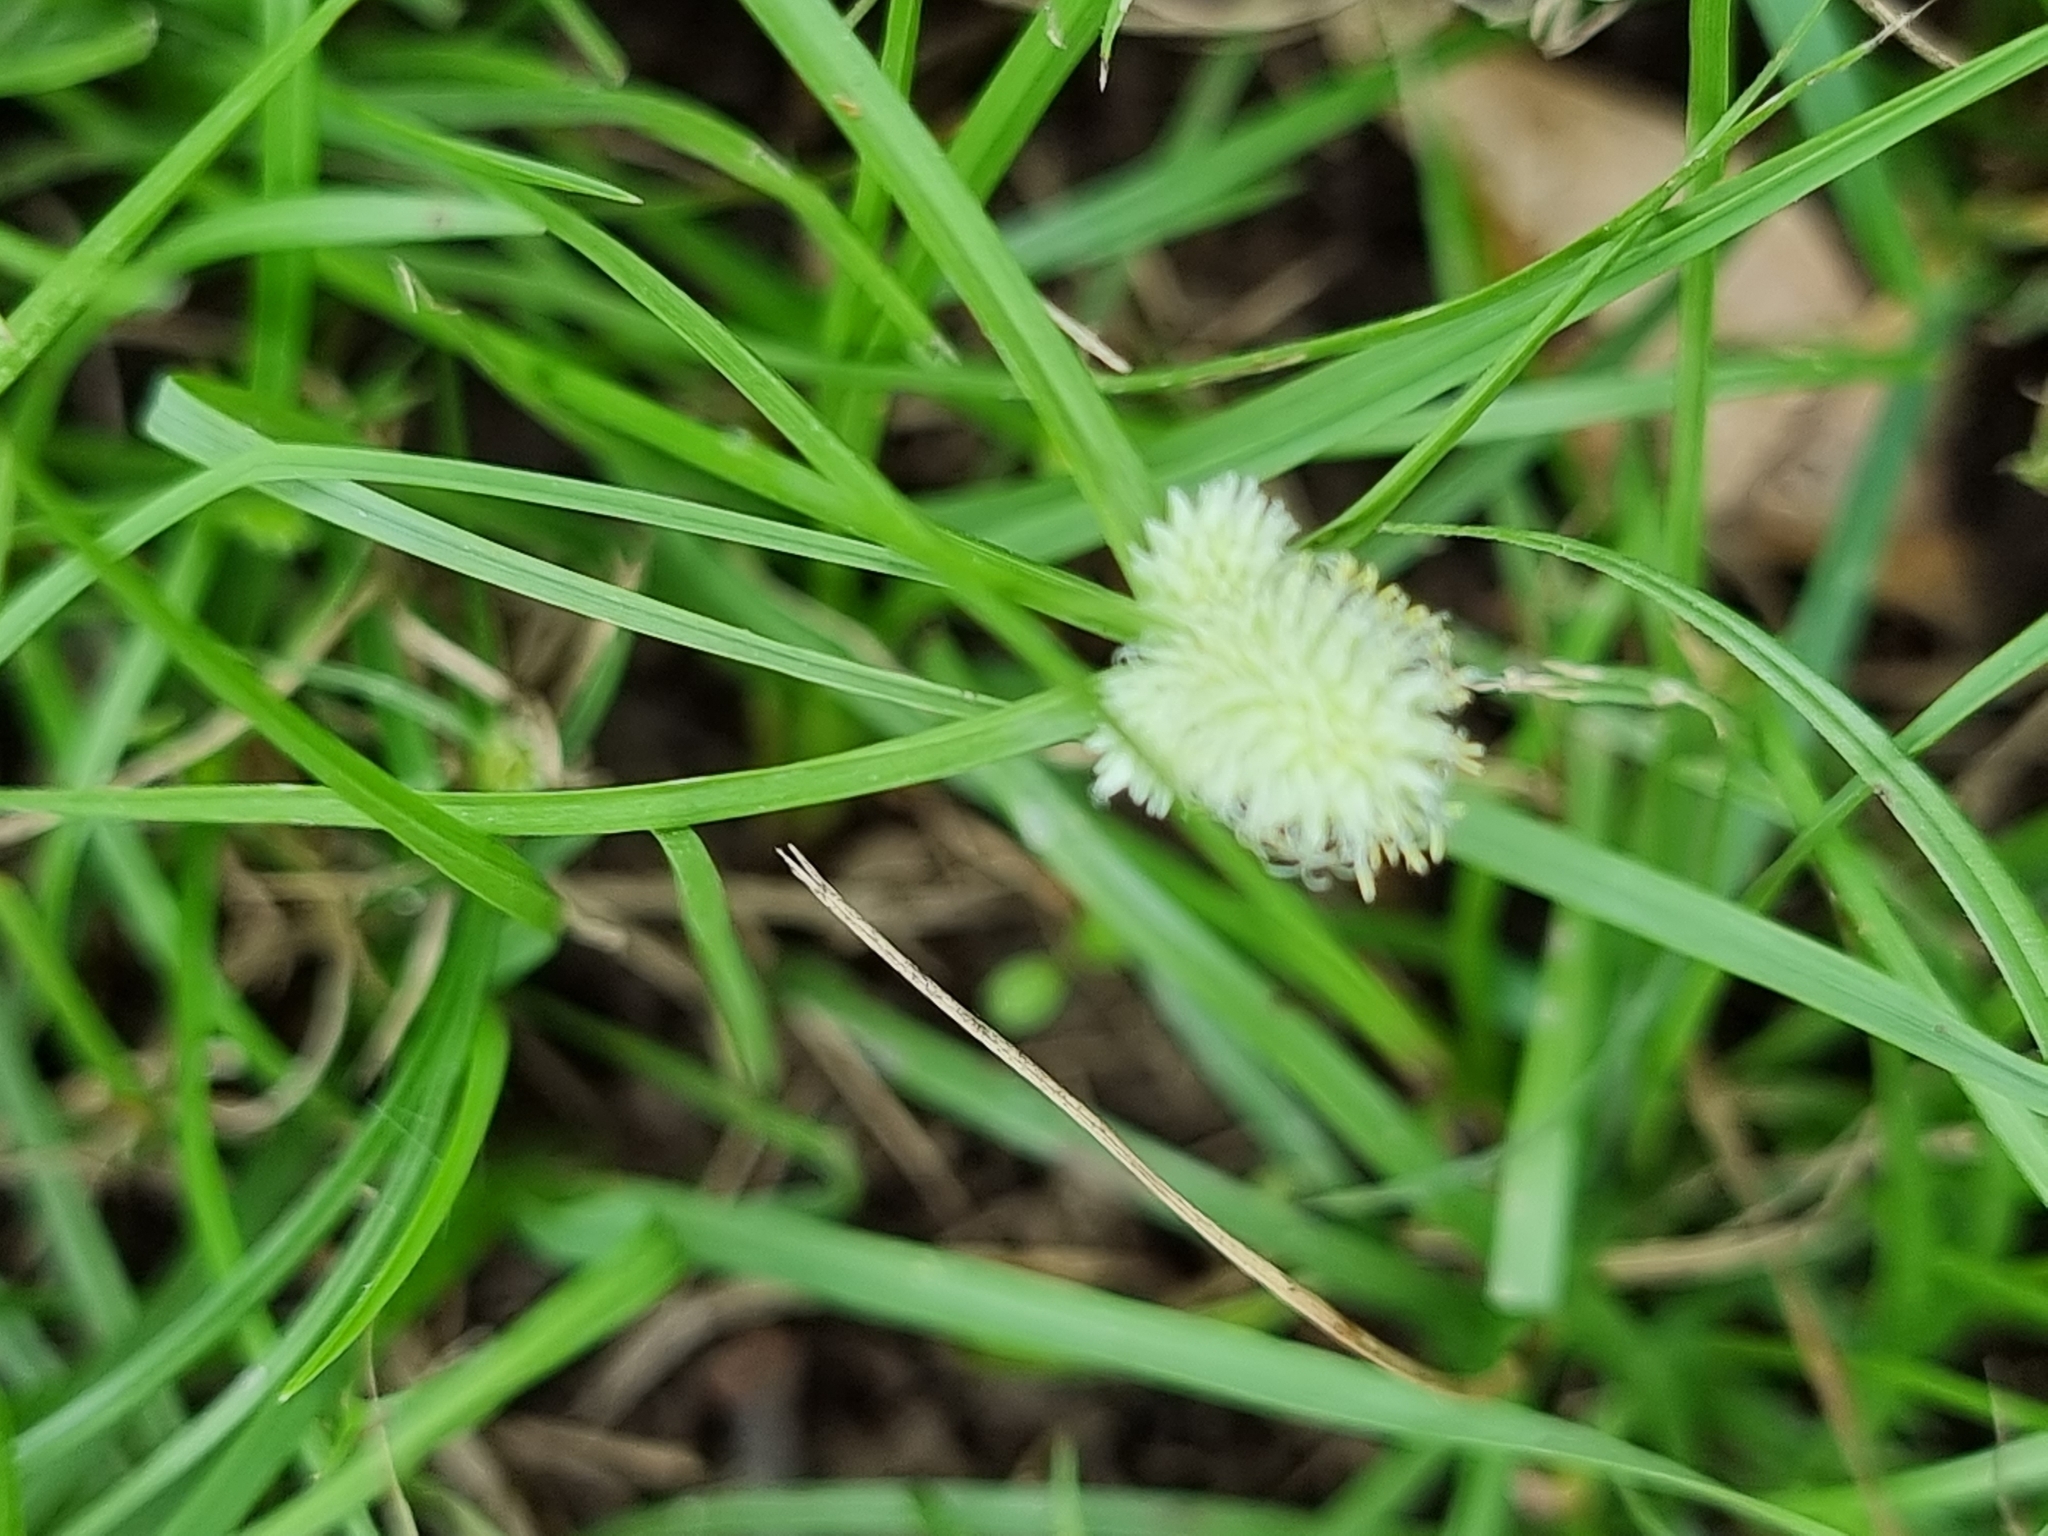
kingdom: Plantae
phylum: Tracheophyta
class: Liliopsida
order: Poales
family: Cyperaceae
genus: Cyperus
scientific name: Cyperus sesquiflorus
